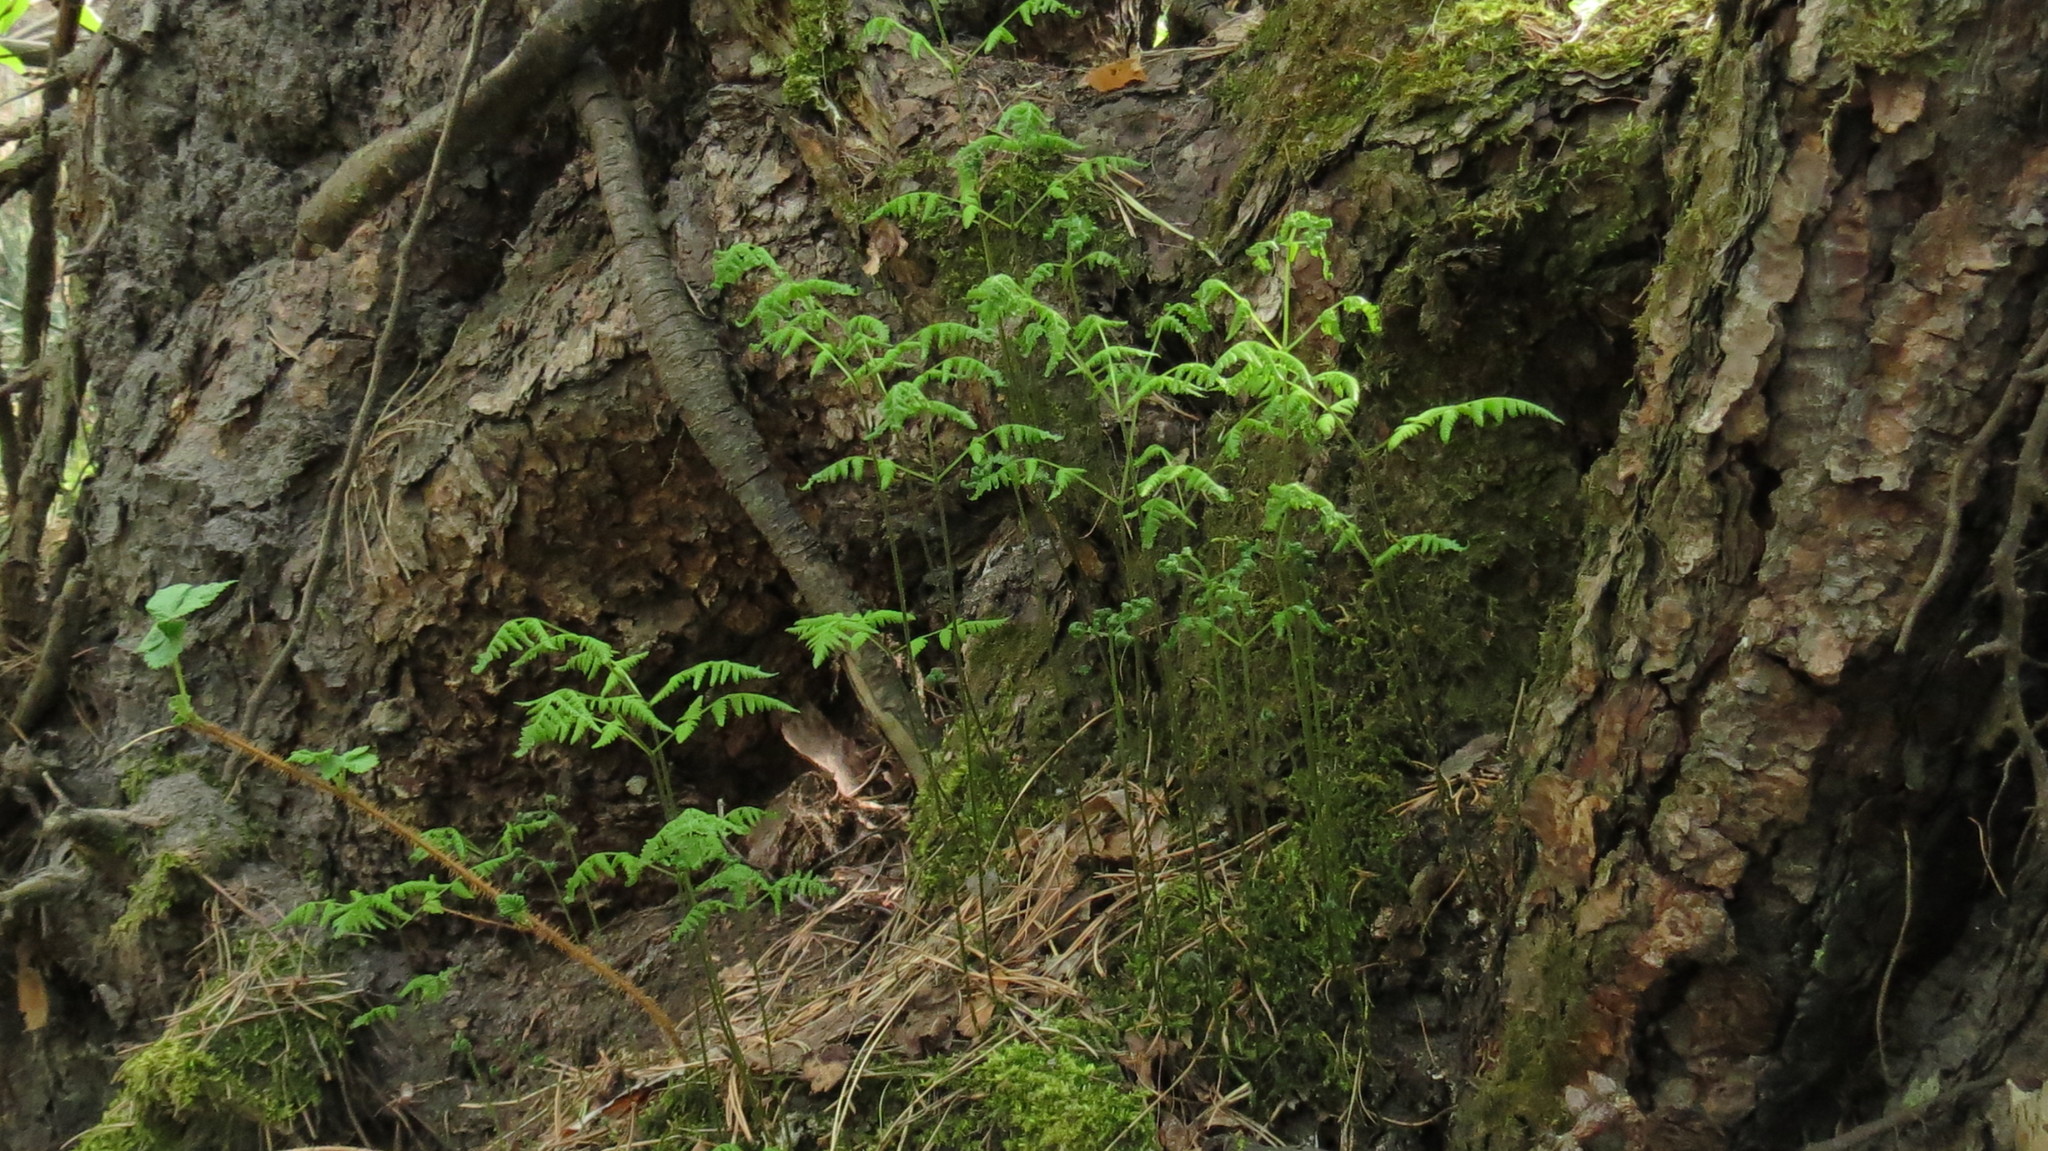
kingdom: Plantae
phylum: Tracheophyta
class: Polypodiopsida
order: Polypodiales
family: Cystopteridaceae
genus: Gymnocarpium
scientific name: Gymnocarpium dryopteris
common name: Oak fern
